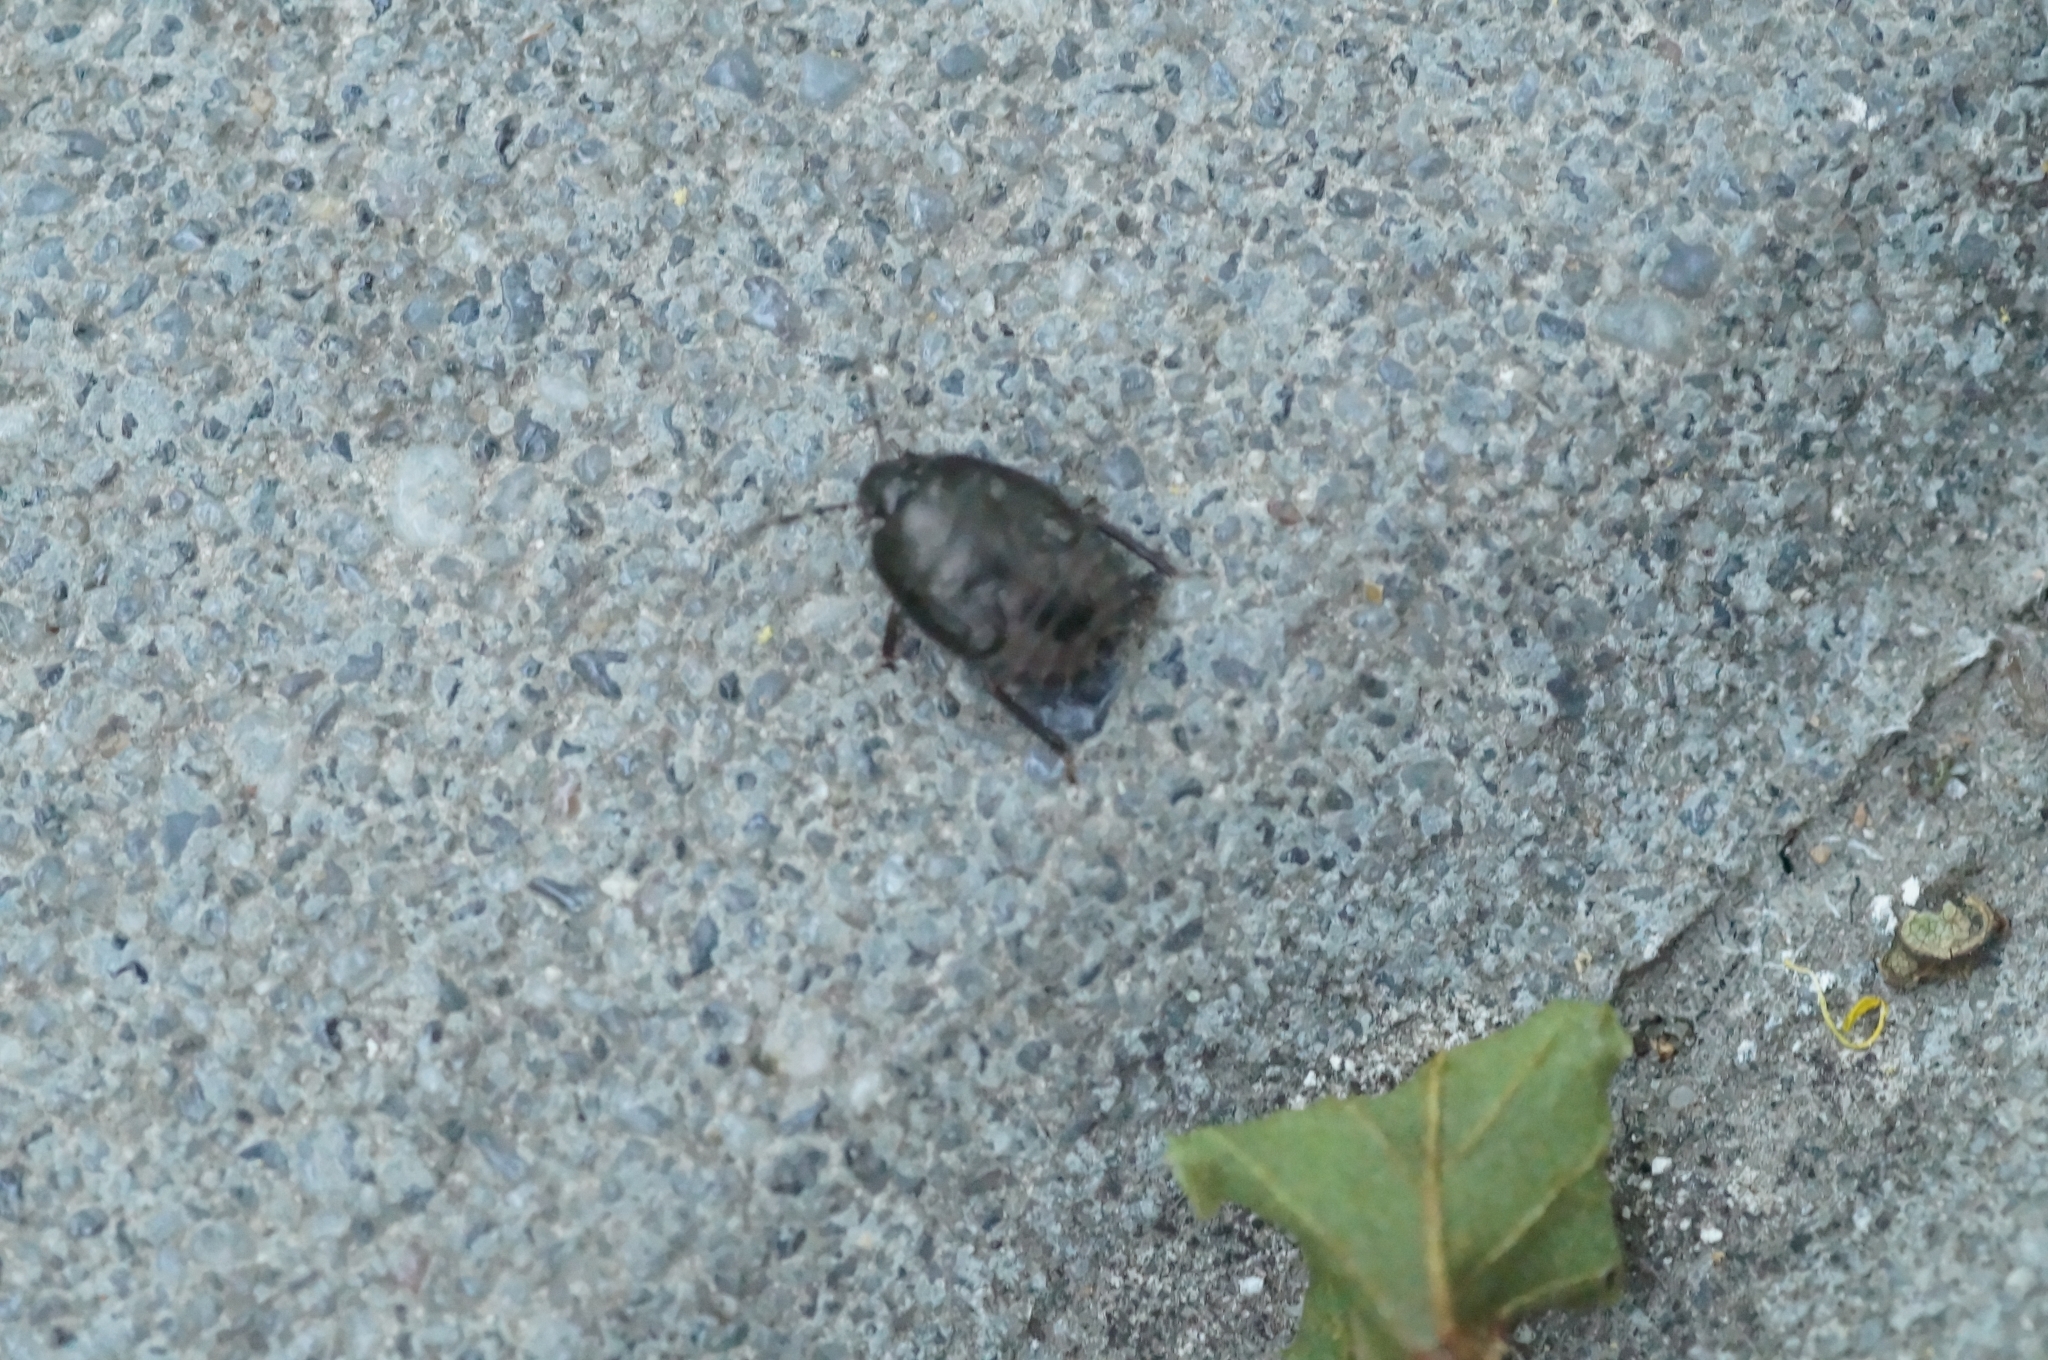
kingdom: Animalia
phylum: Arthropoda
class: Insecta
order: Hemiptera
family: Cydnidae
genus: Sehirus
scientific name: Sehirus luctuosus
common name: Forget-me-not shieldbug
